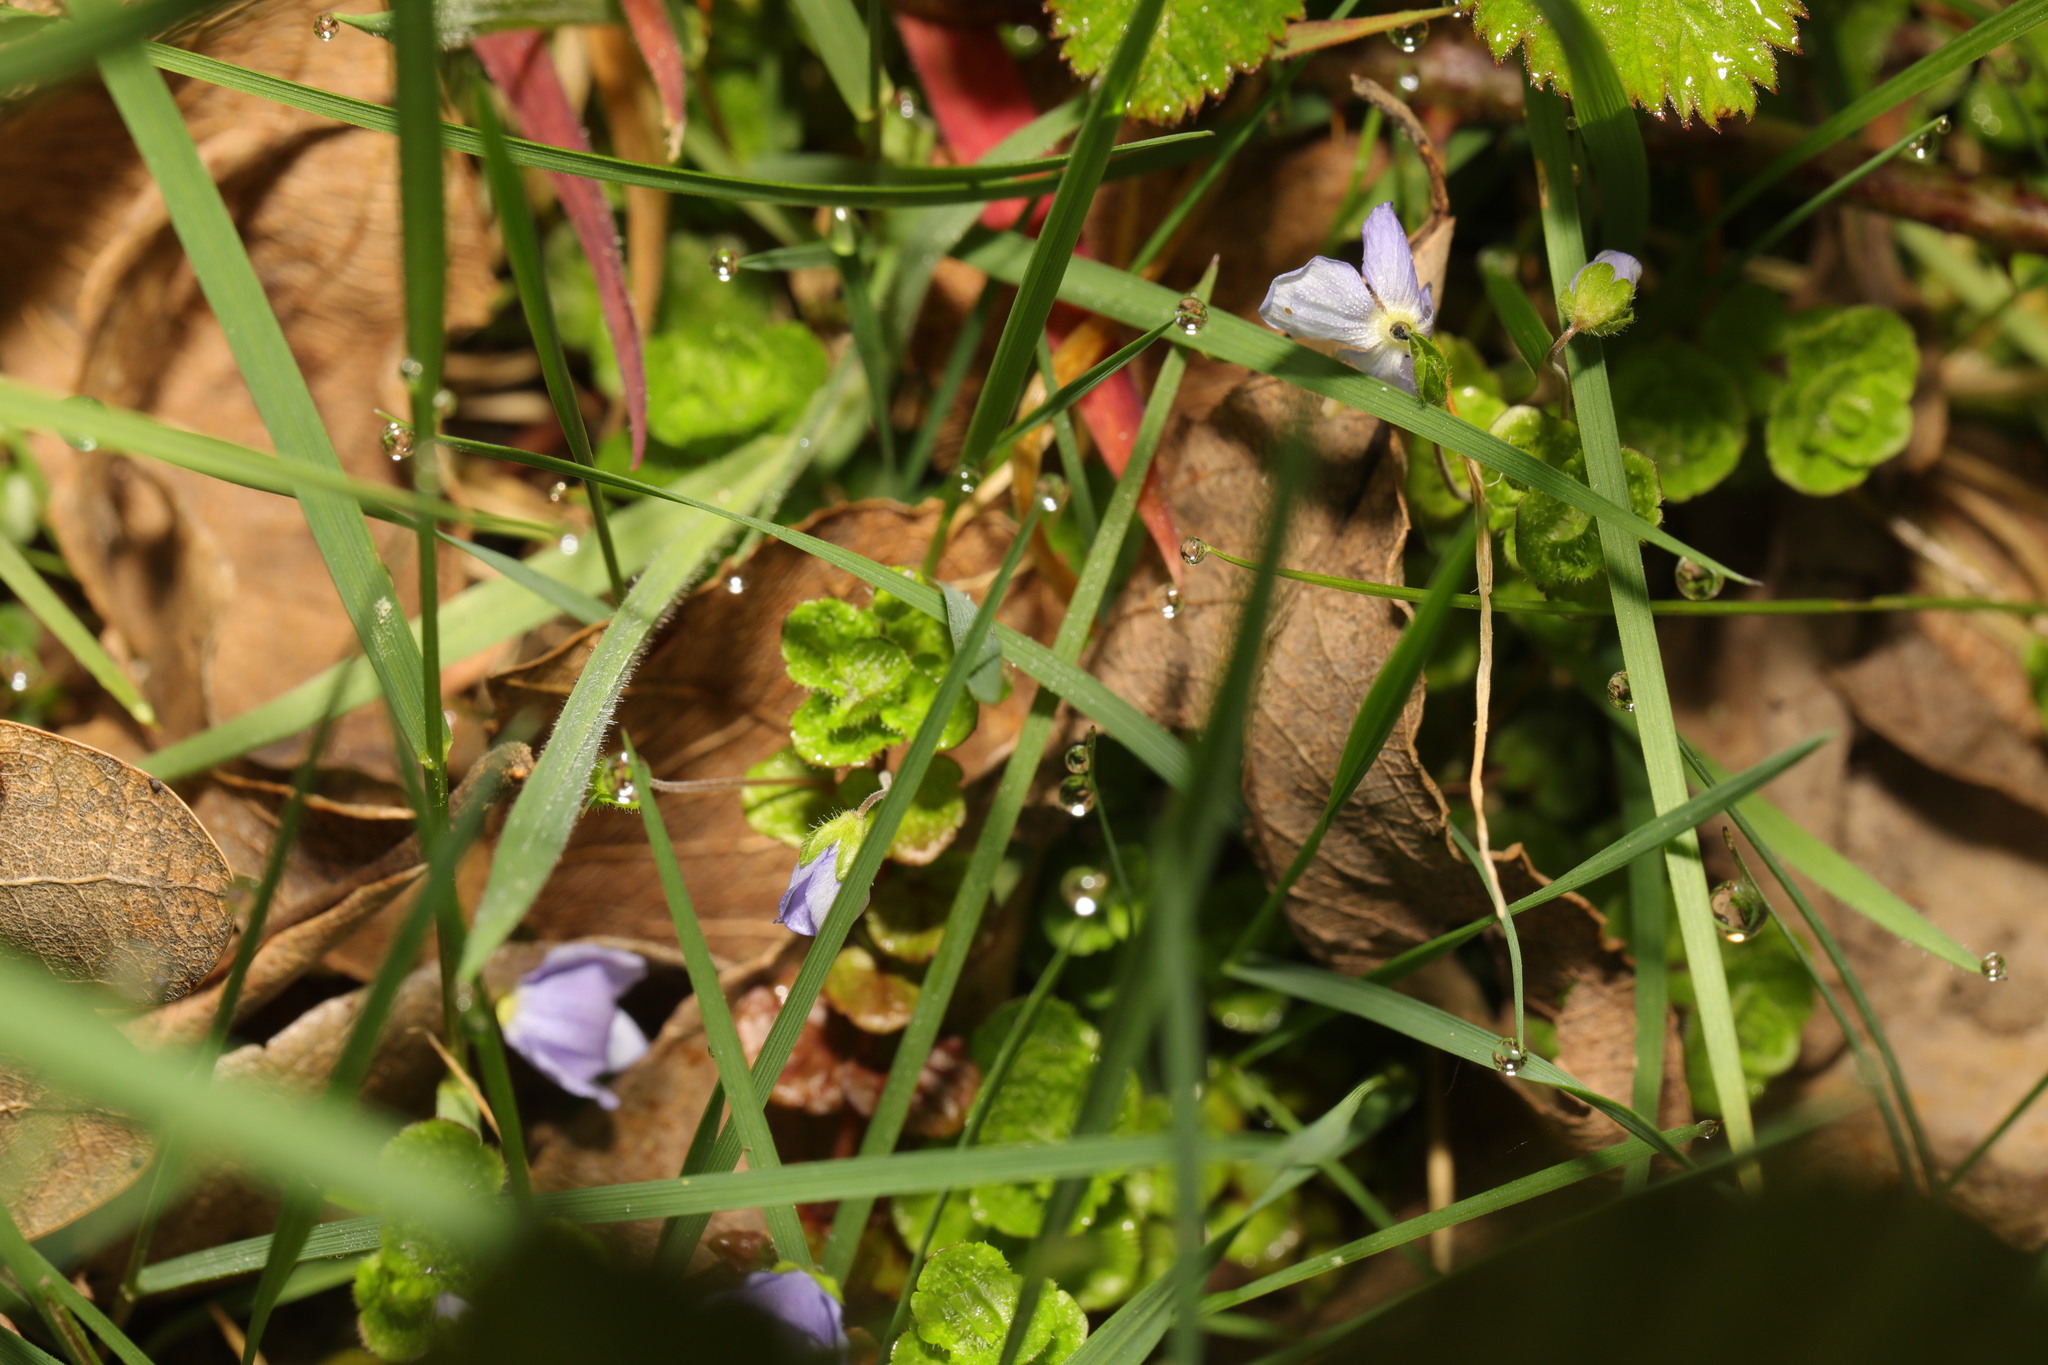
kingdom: Plantae
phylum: Tracheophyta
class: Magnoliopsida
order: Lamiales
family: Plantaginaceae
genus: Veronica
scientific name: Veronica filiformis
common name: Slender speedwell
